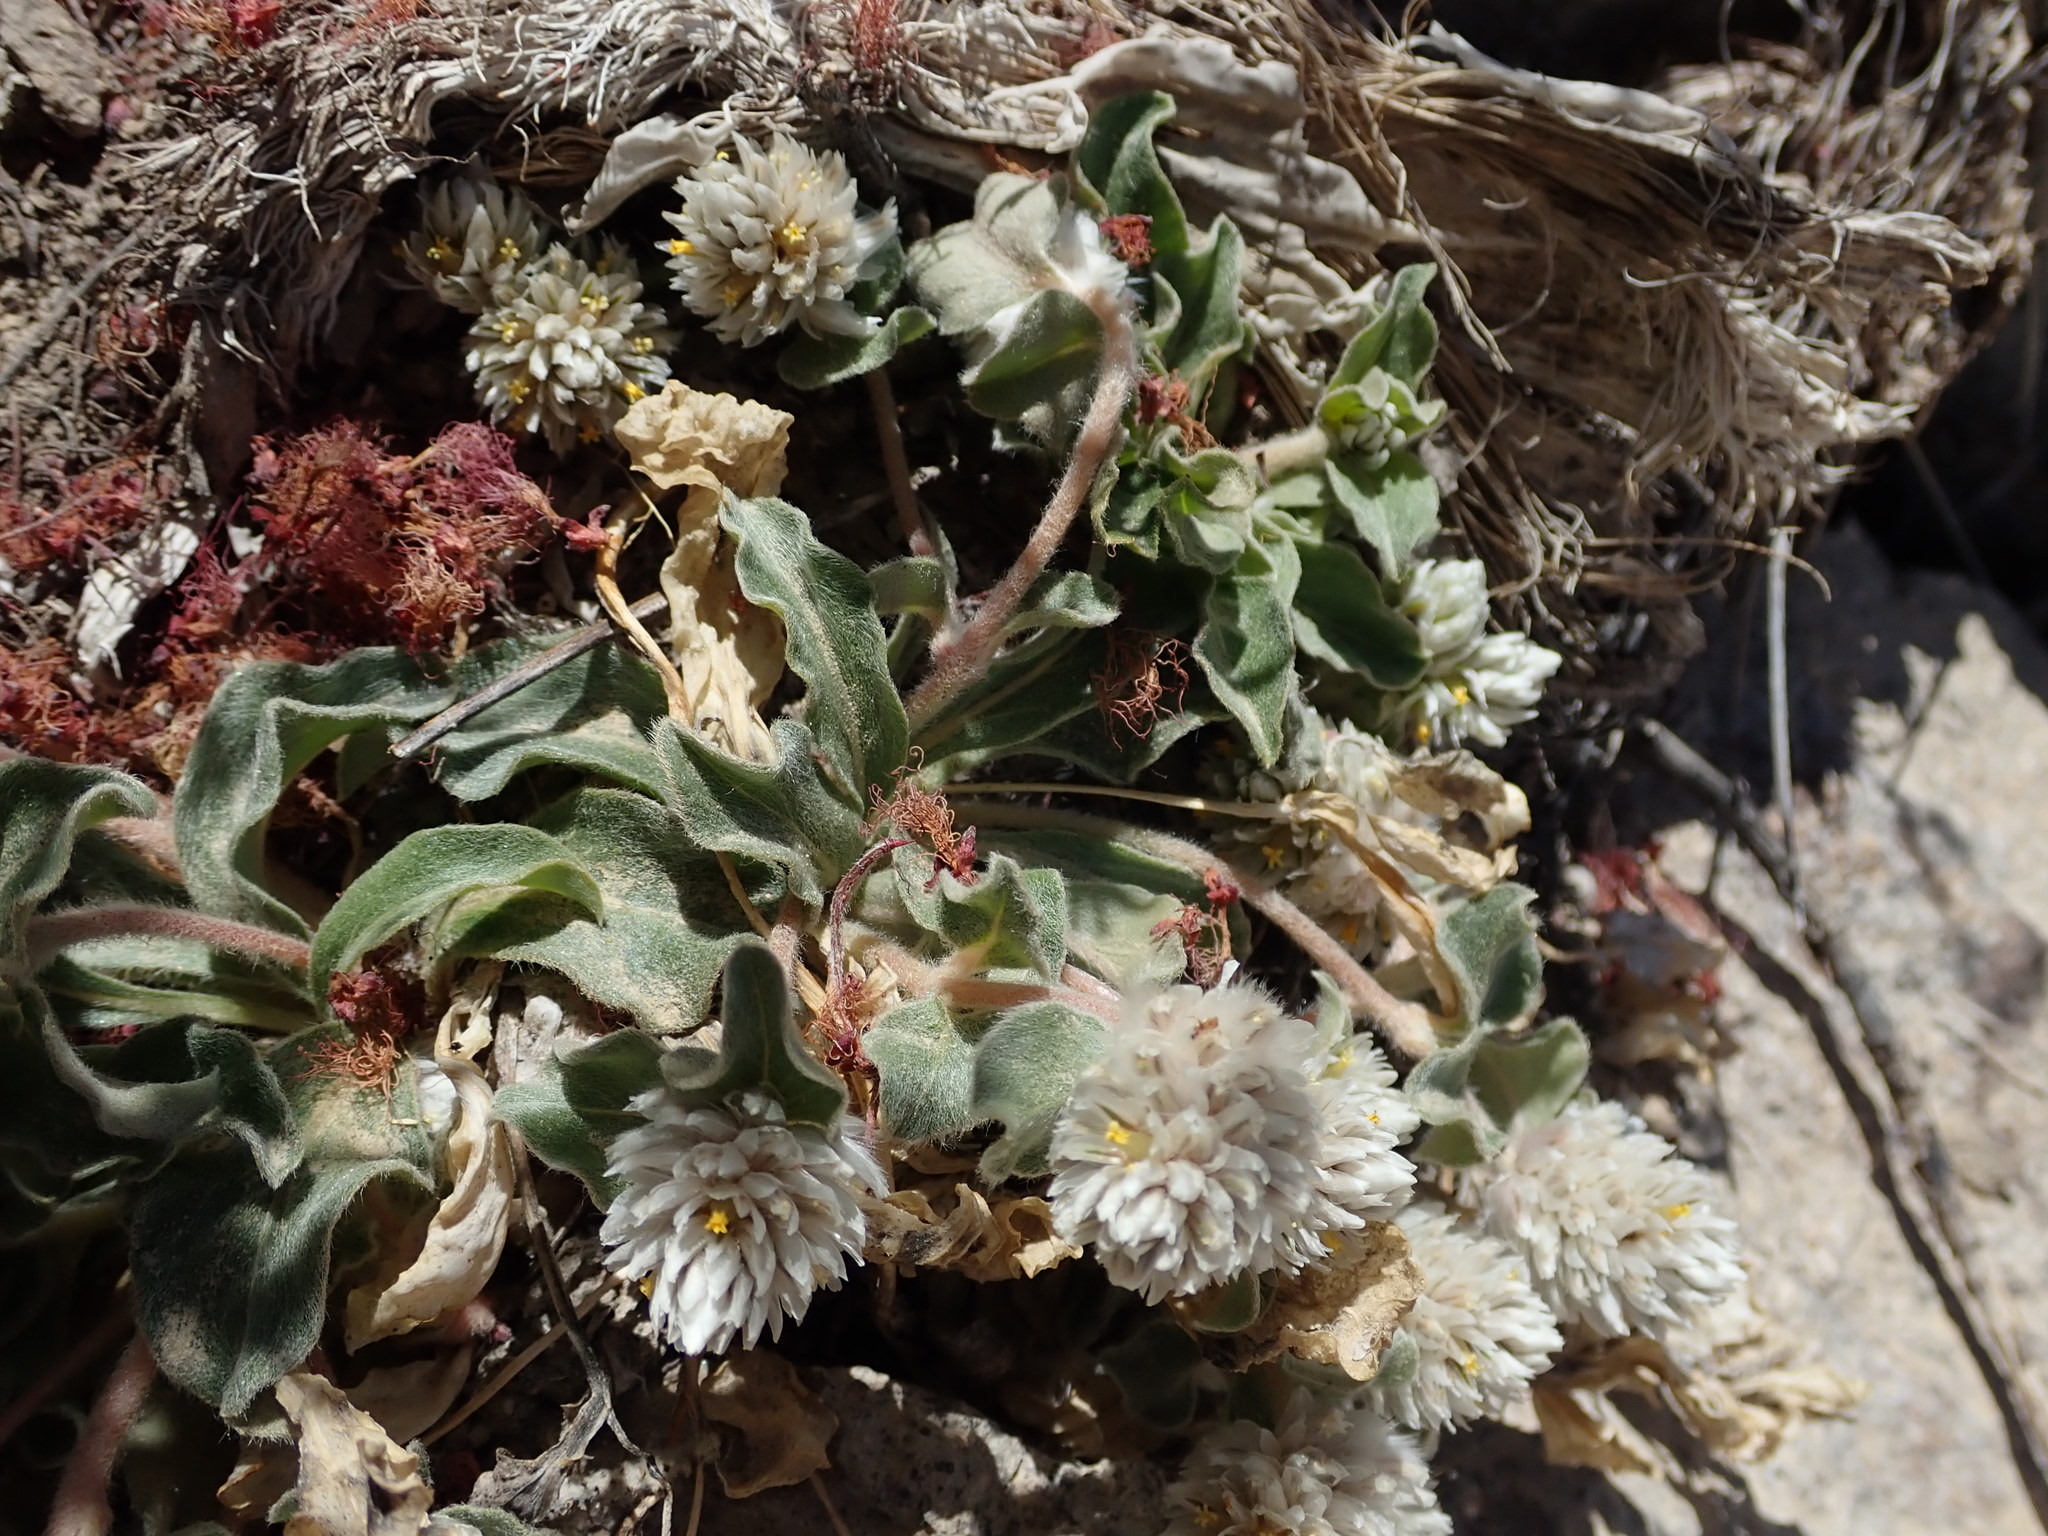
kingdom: Plantae
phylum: Tracheophyta
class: Magnoliopsida
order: Caryophyllales
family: Amaranthaceae
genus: Gomphrena
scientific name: Gomphrena caespitosa
